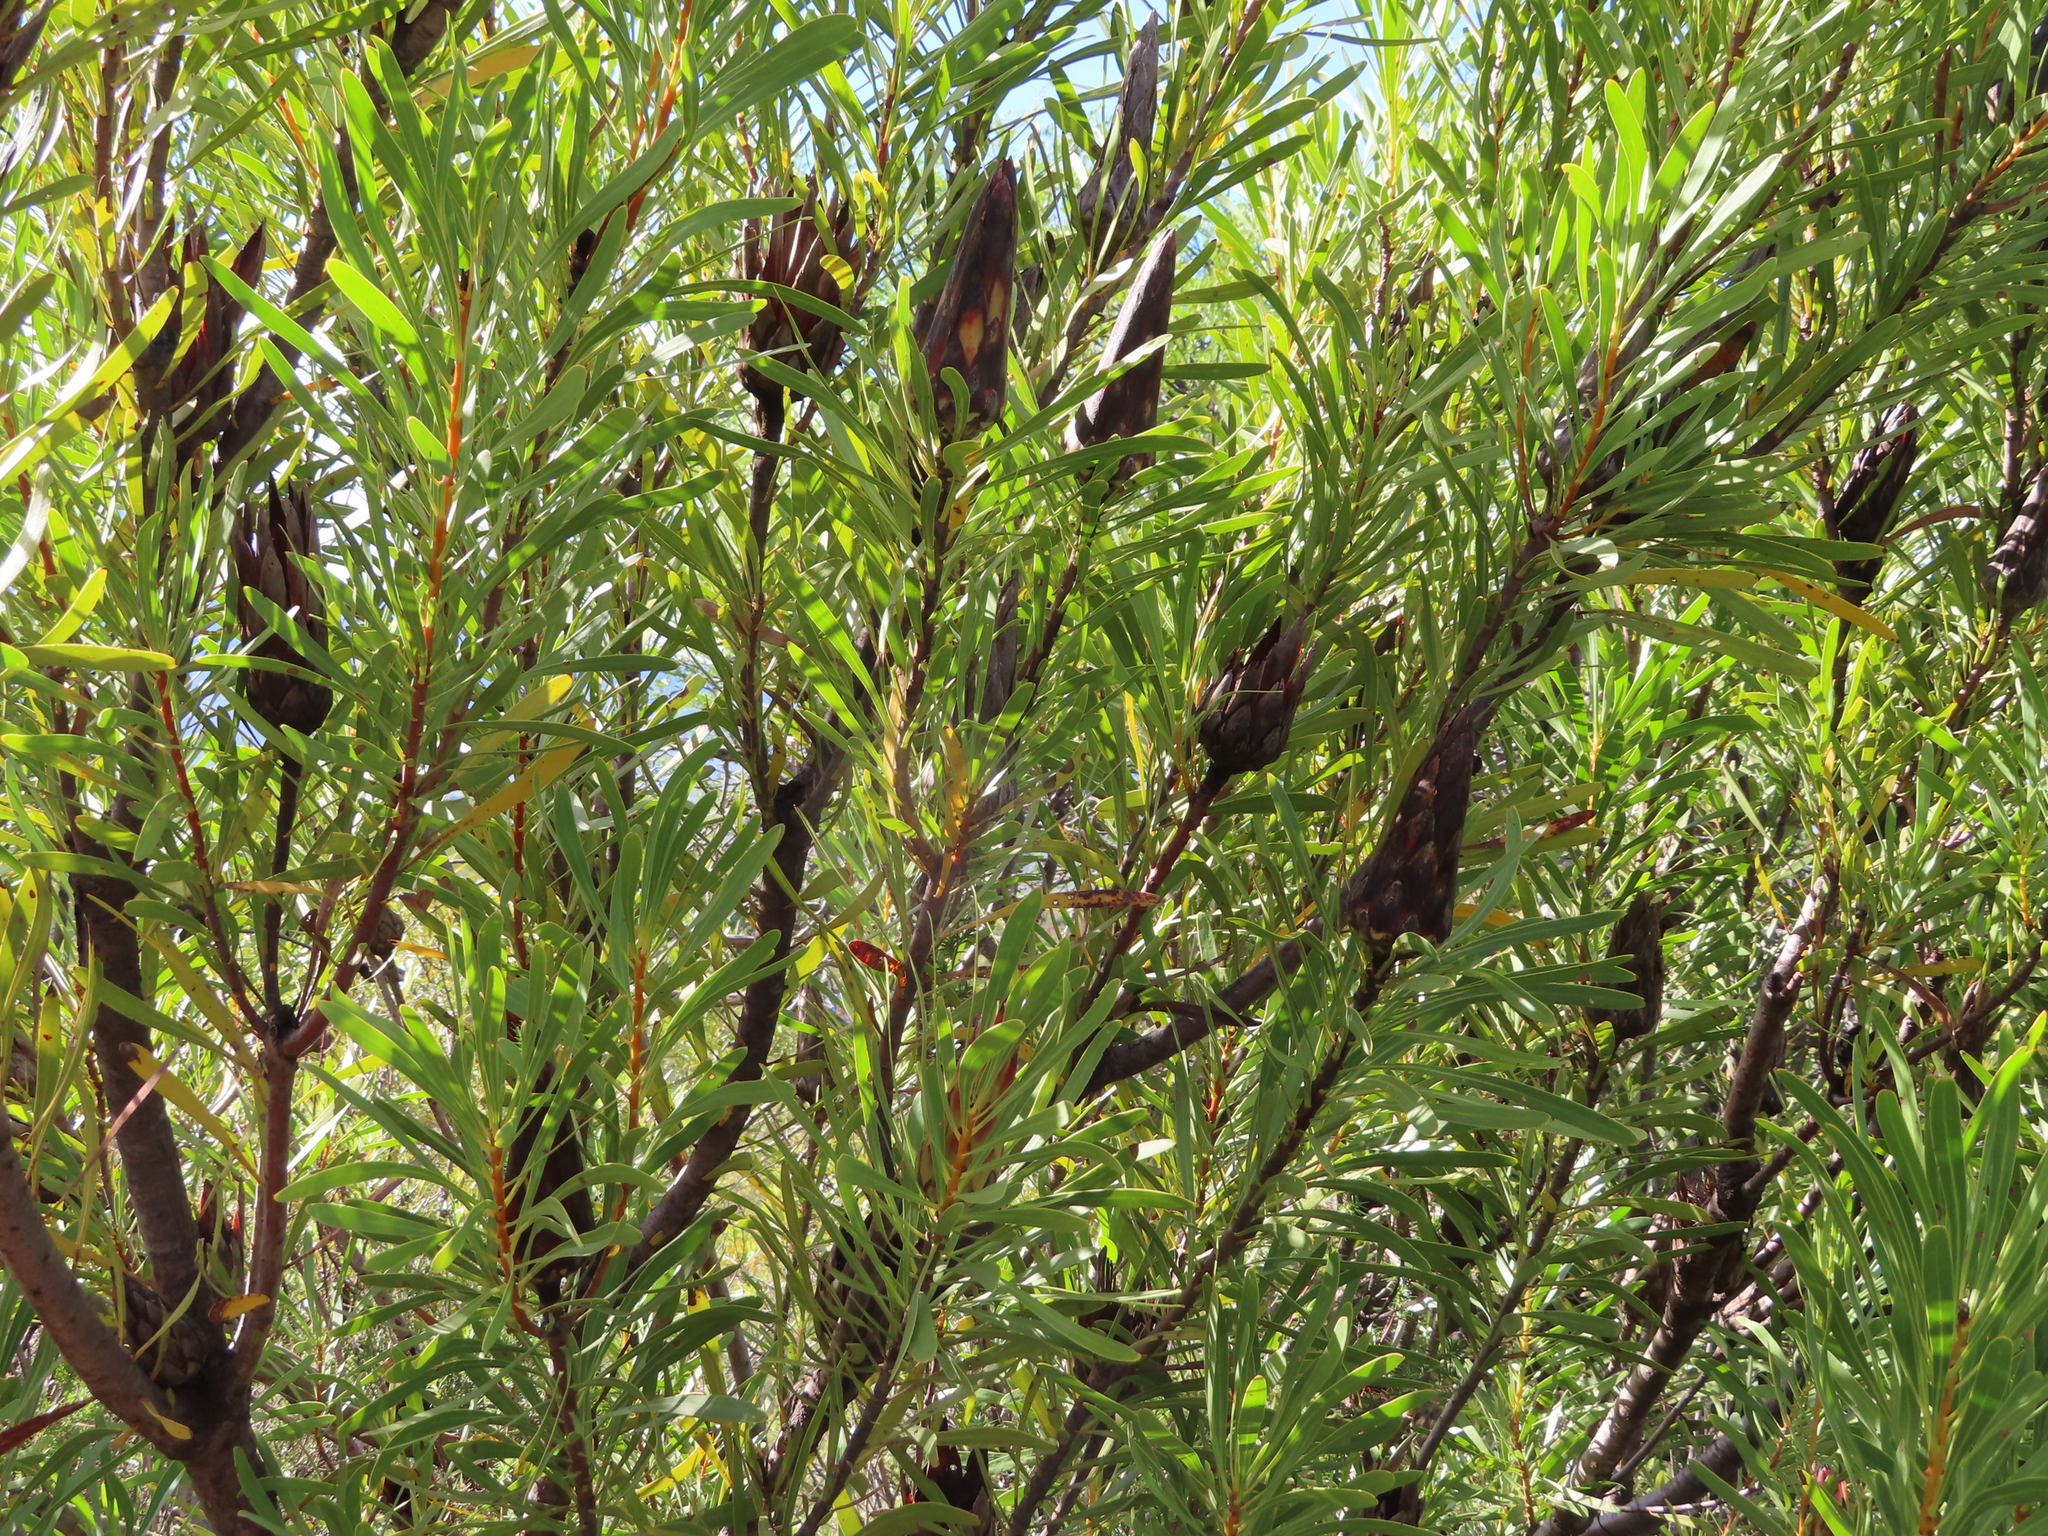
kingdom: Plantae
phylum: Tracheophyta
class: Magnoliopsida
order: Proteales
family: Proteaceae
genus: Protea
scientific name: Protea repens
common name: Sugarbush
